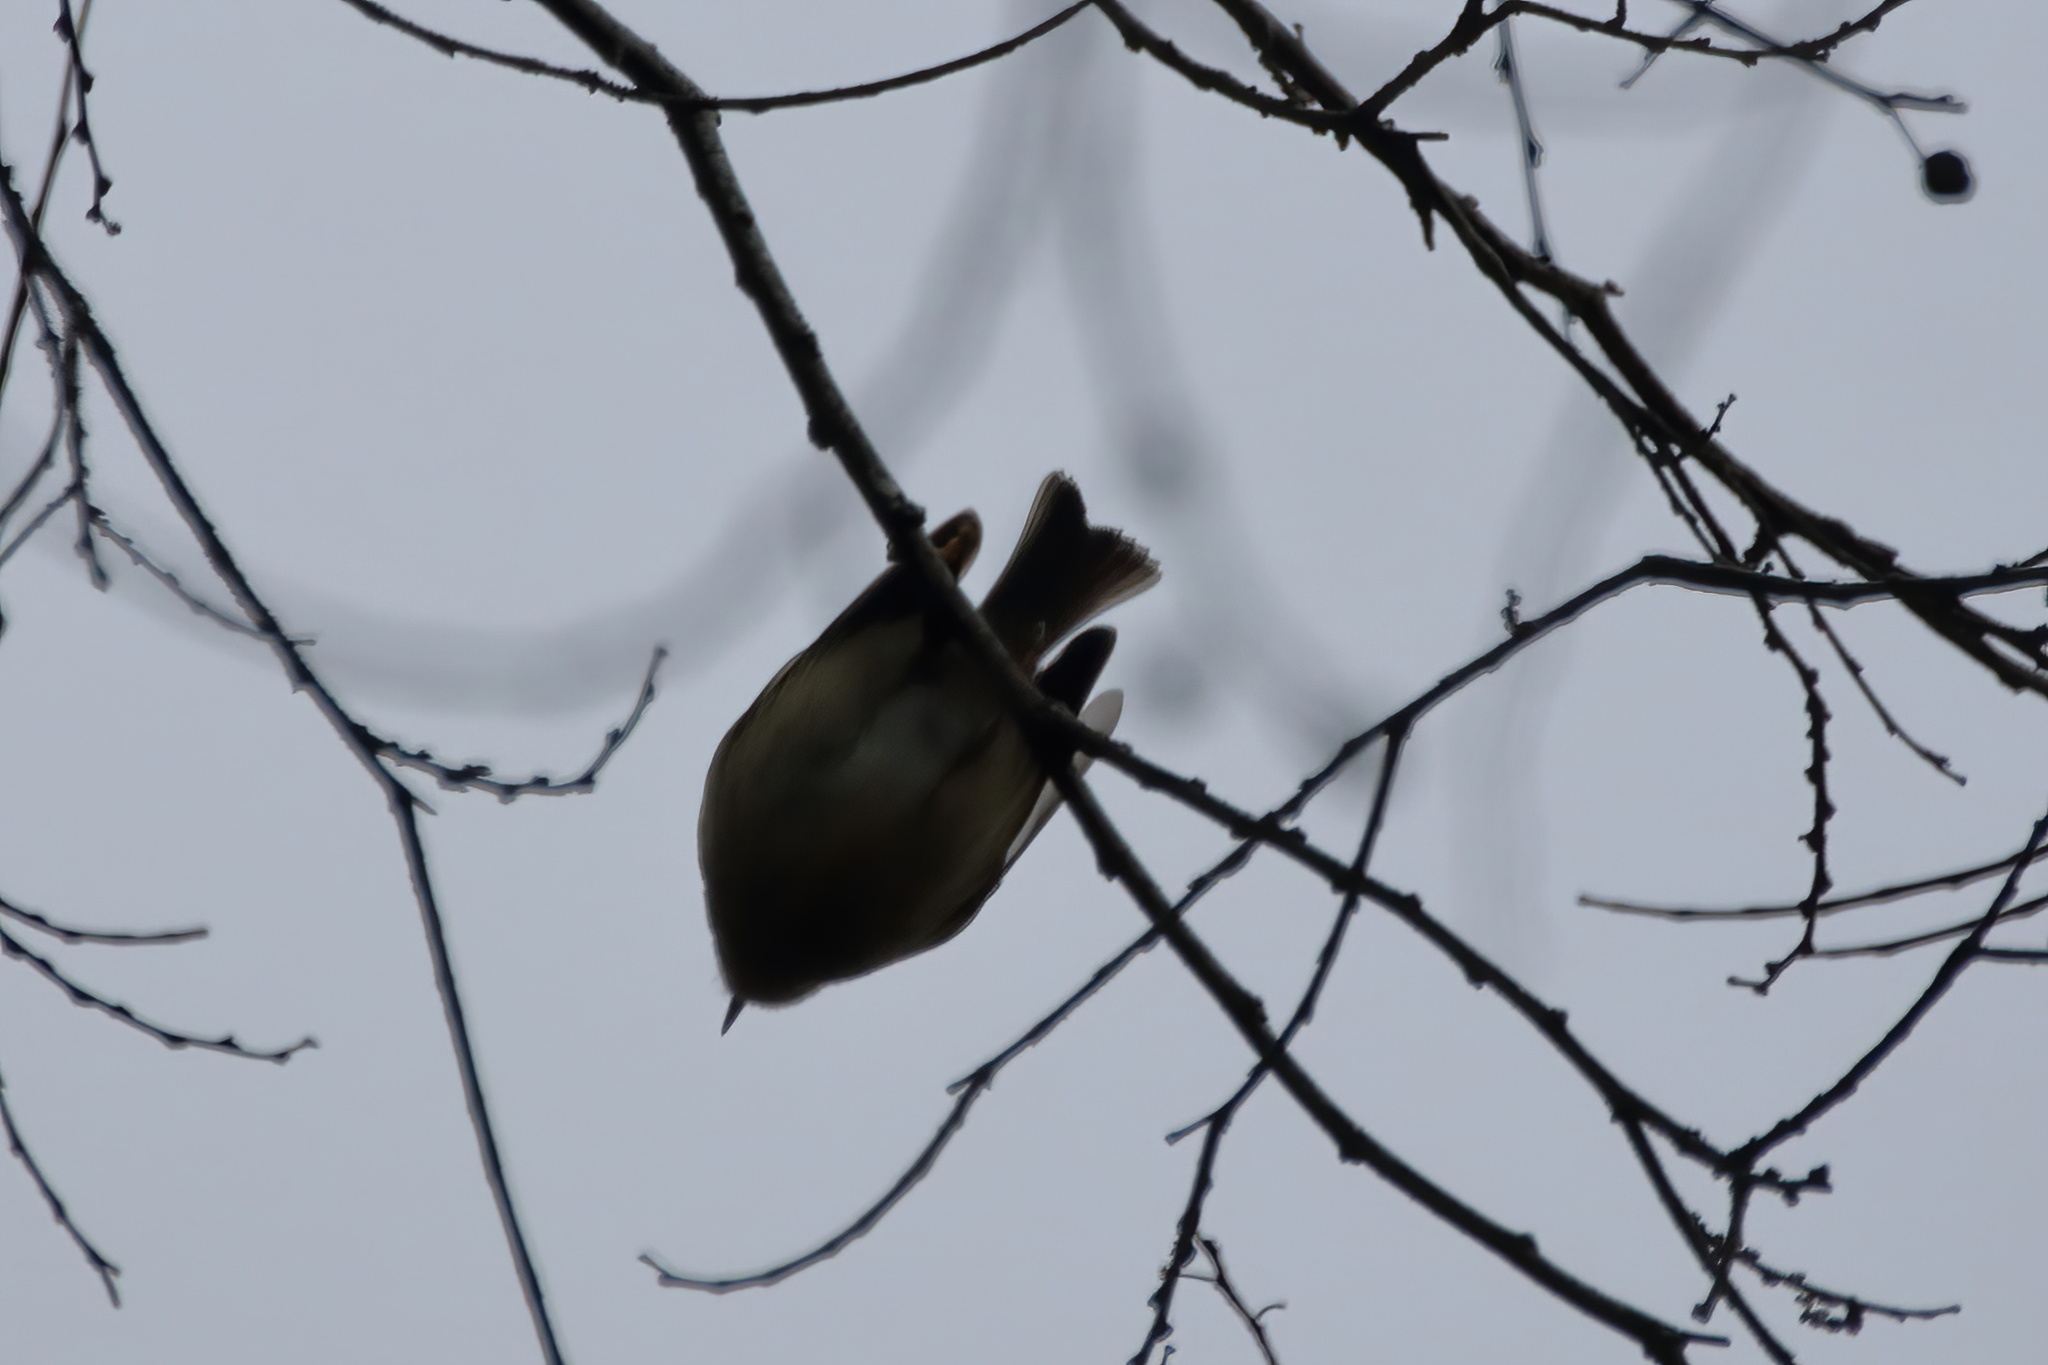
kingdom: Animalia
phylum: Chordata
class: Aves
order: Passeriformes
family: Regulidae
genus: Regulus
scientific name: Regulus satrapa
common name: Golden-crowned kinglet
